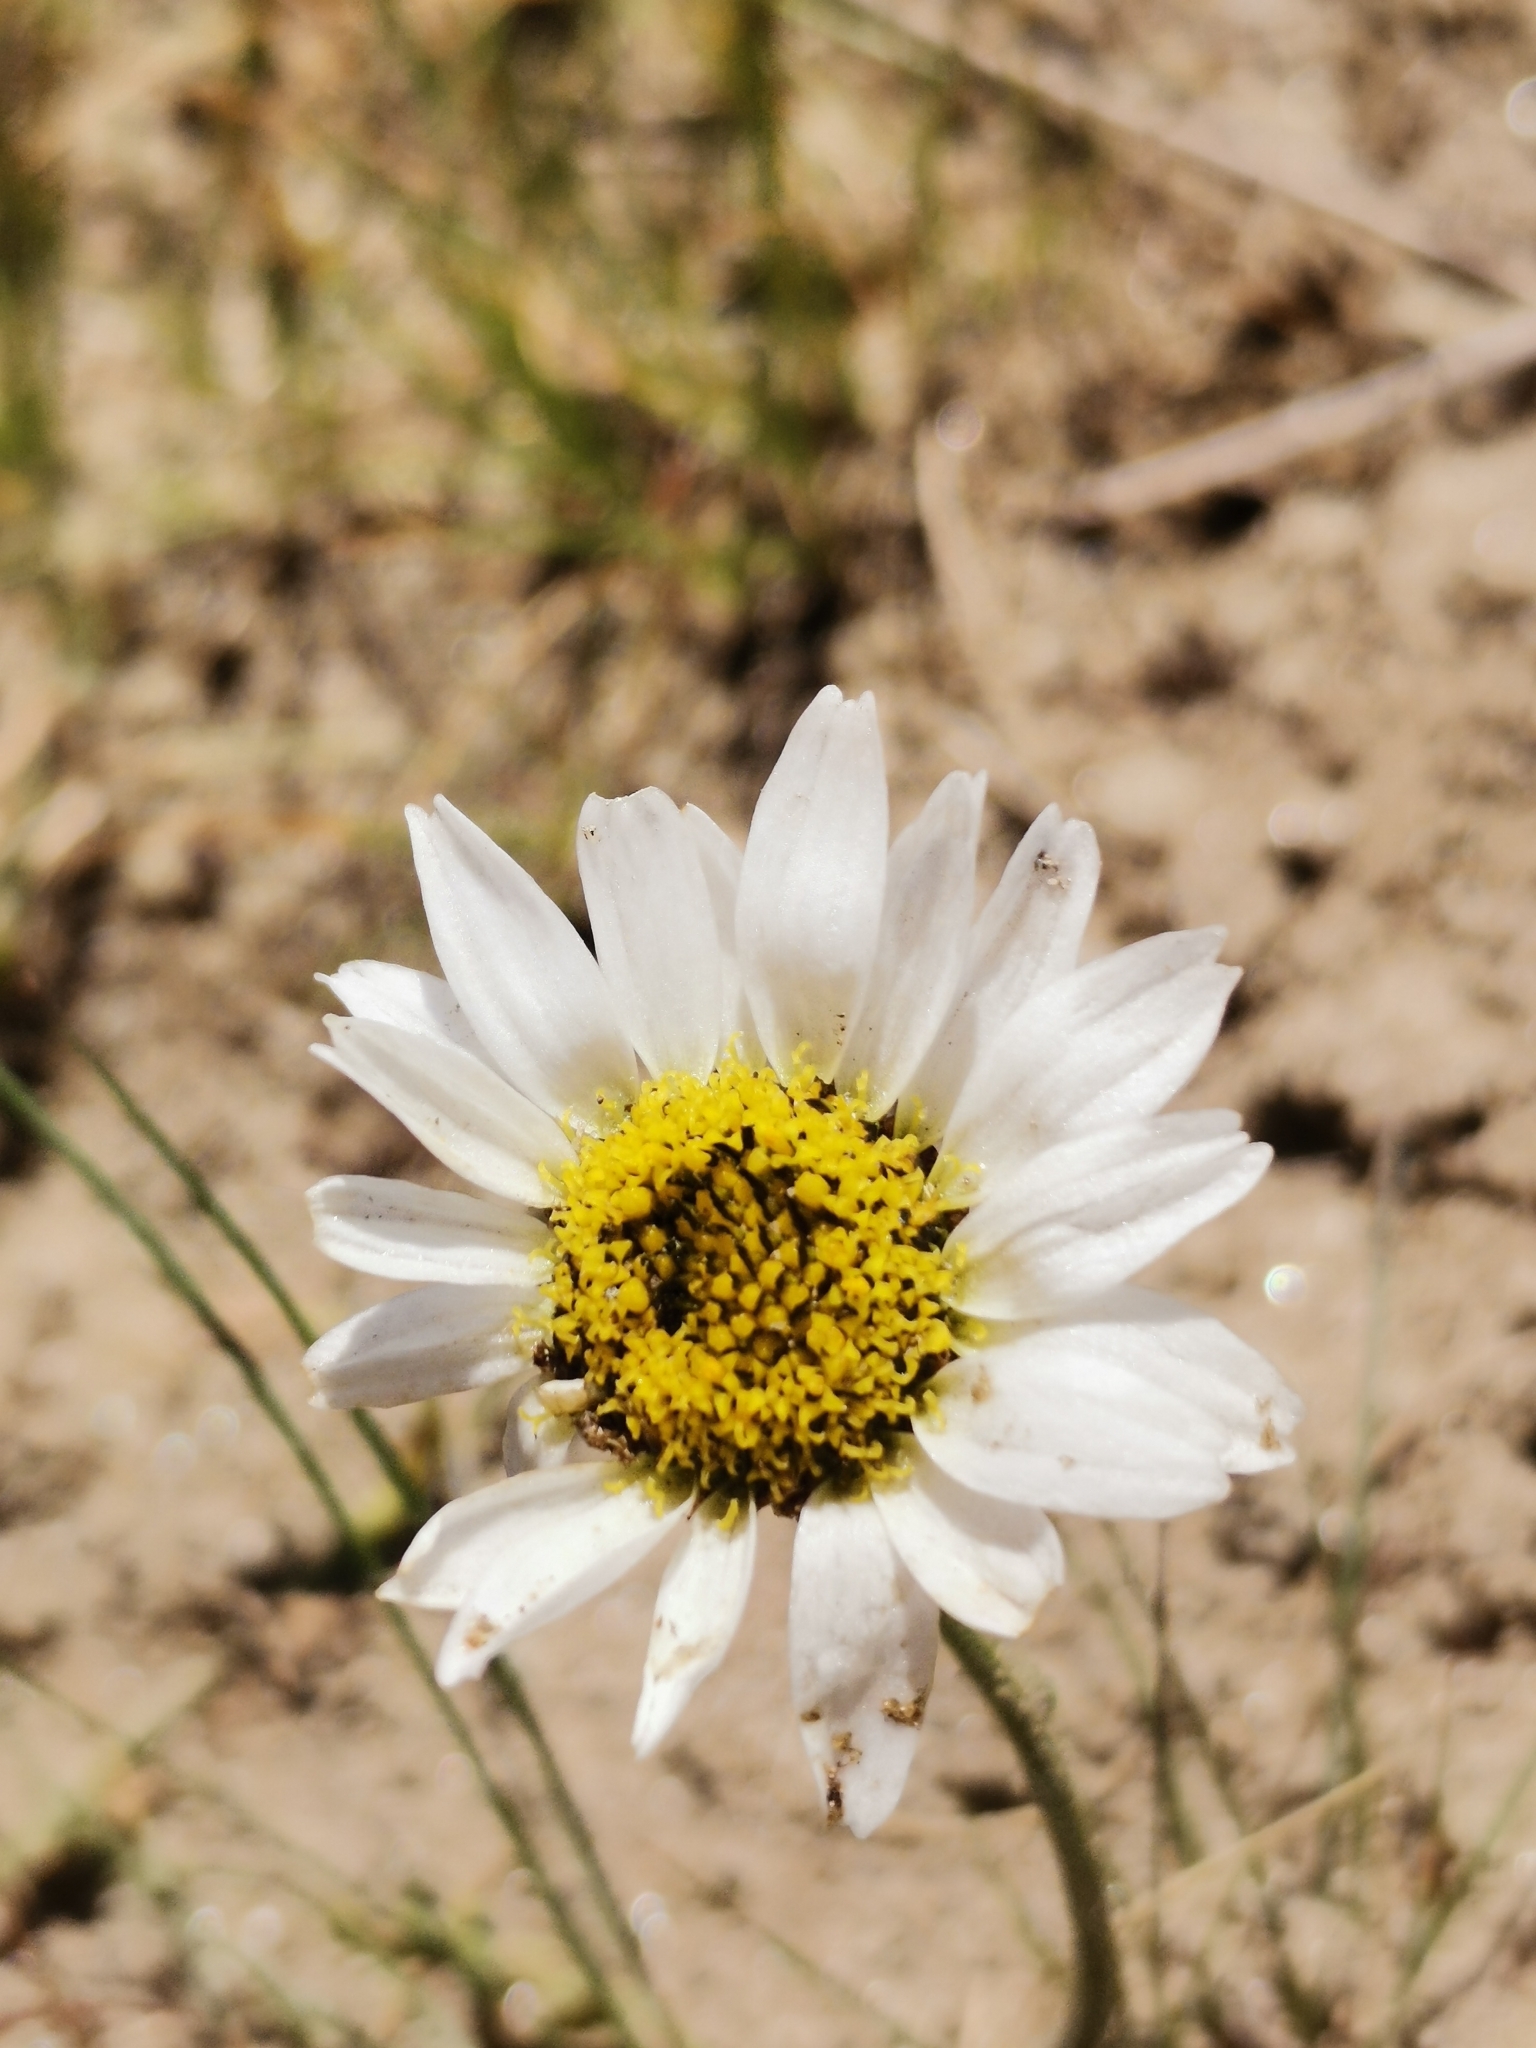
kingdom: Plantae
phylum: Tracheophyta
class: Magnoliopsida
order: Asterales
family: Asteraceae
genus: Leucanthemopsis
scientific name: Leucanthemopsis alpina
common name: Alpine moon daisy
